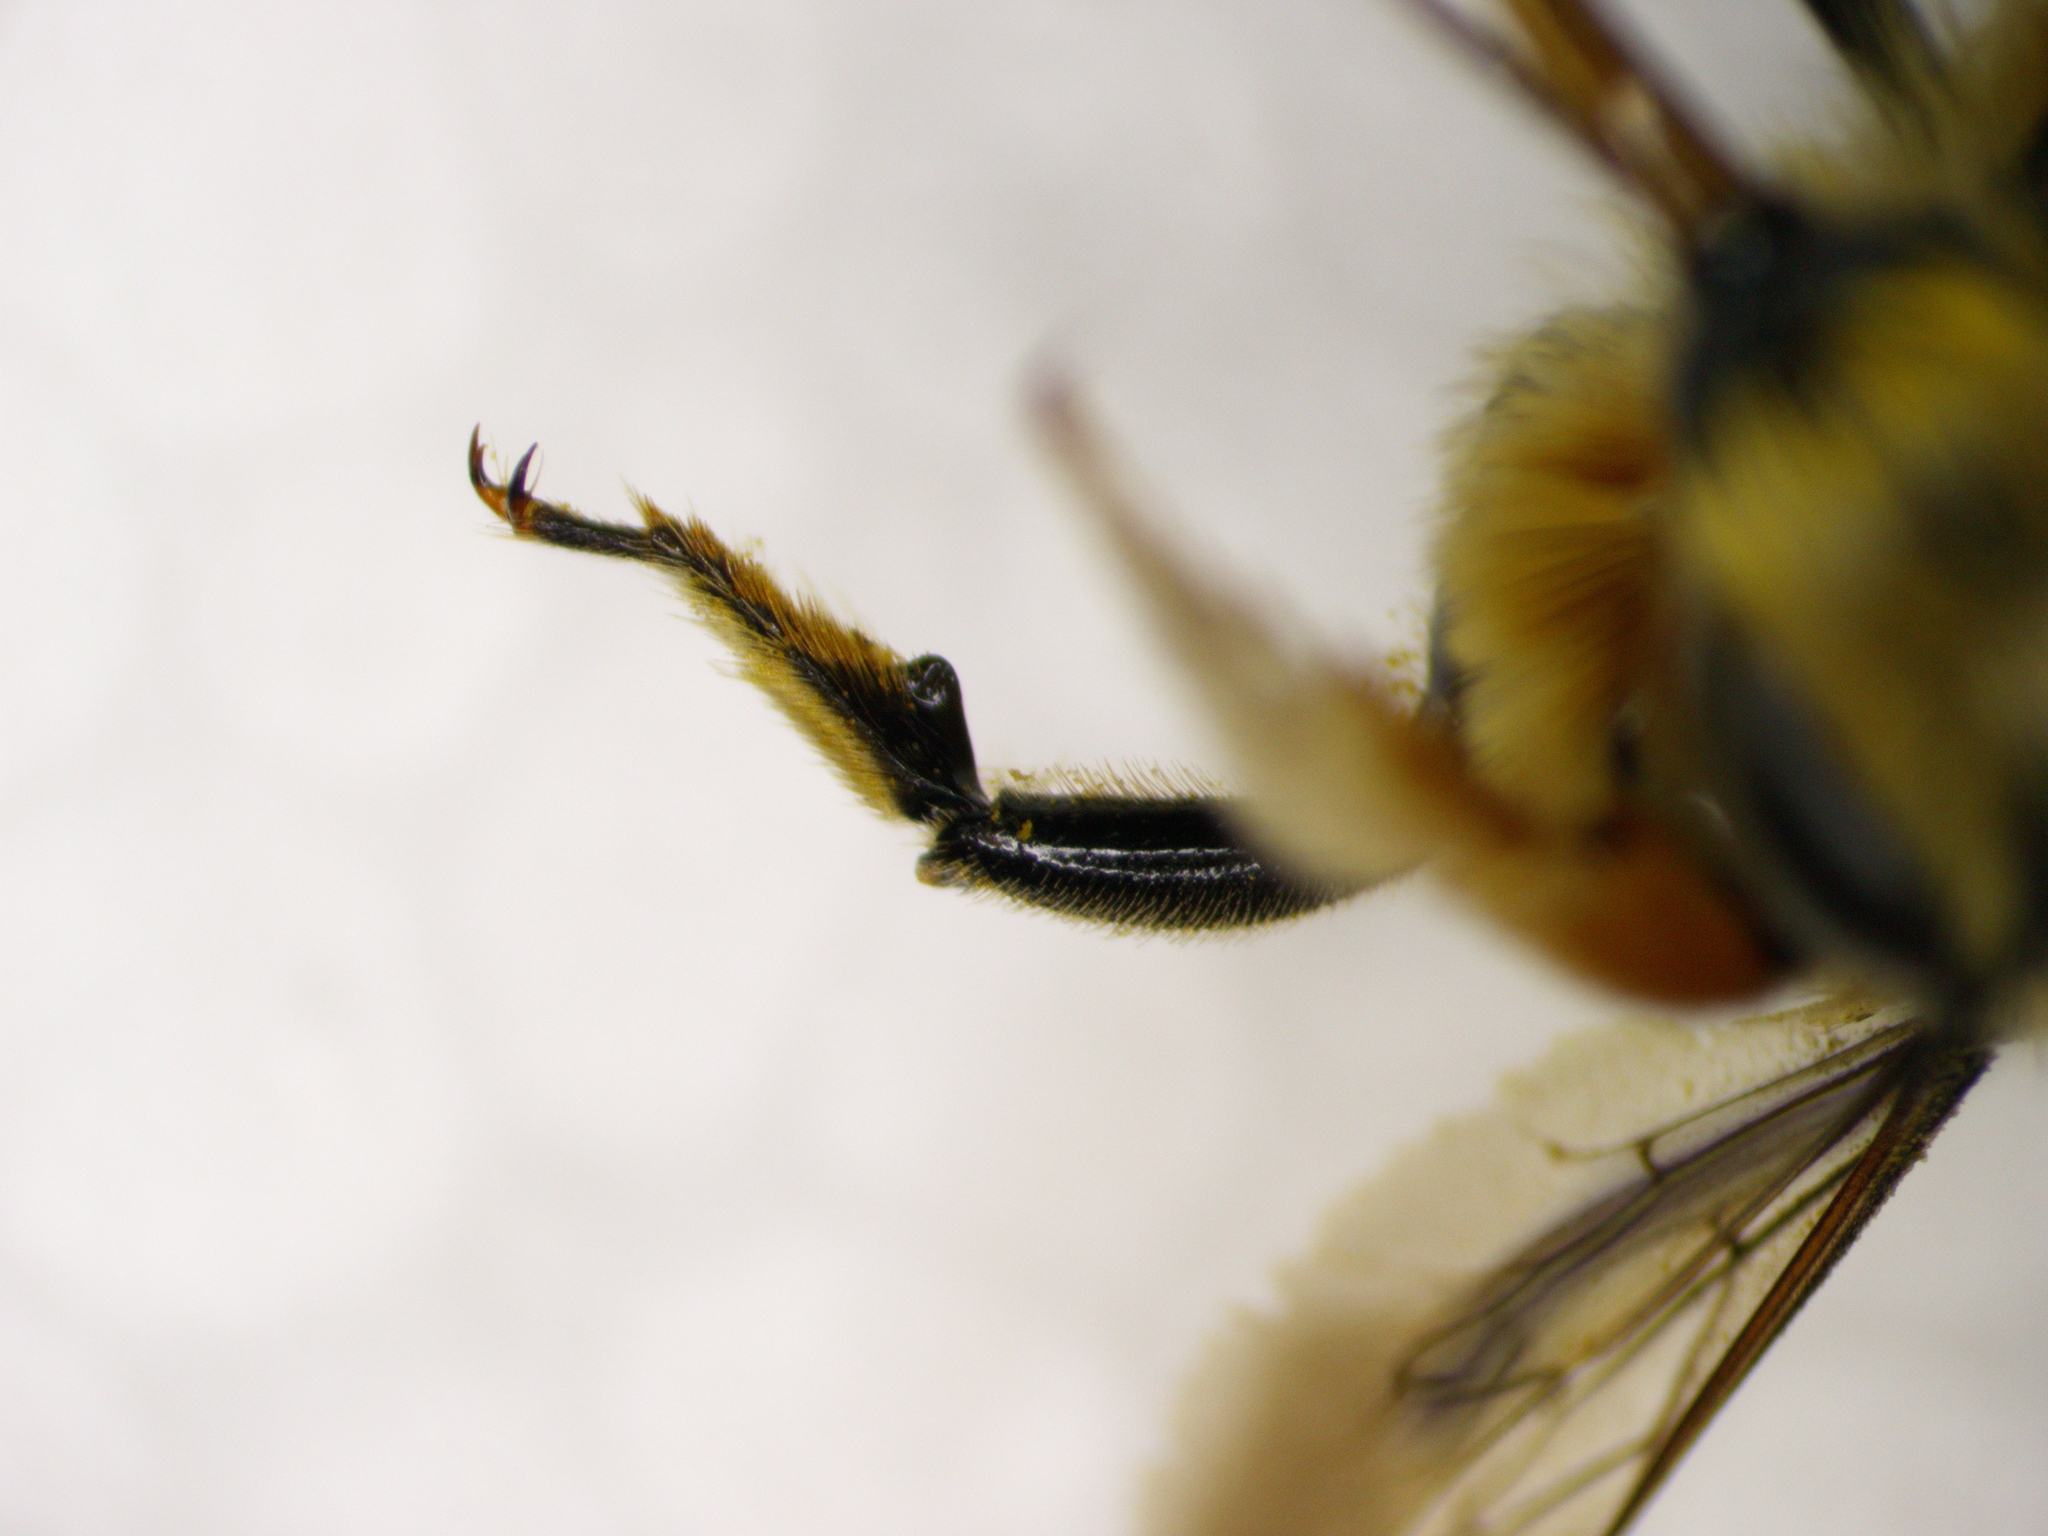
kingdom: Animalia
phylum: Arthropoda
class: Insecta
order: Hymenoptera
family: Megachilidae
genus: Megachile
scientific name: Megachile perihirta
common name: Western leafcutter
